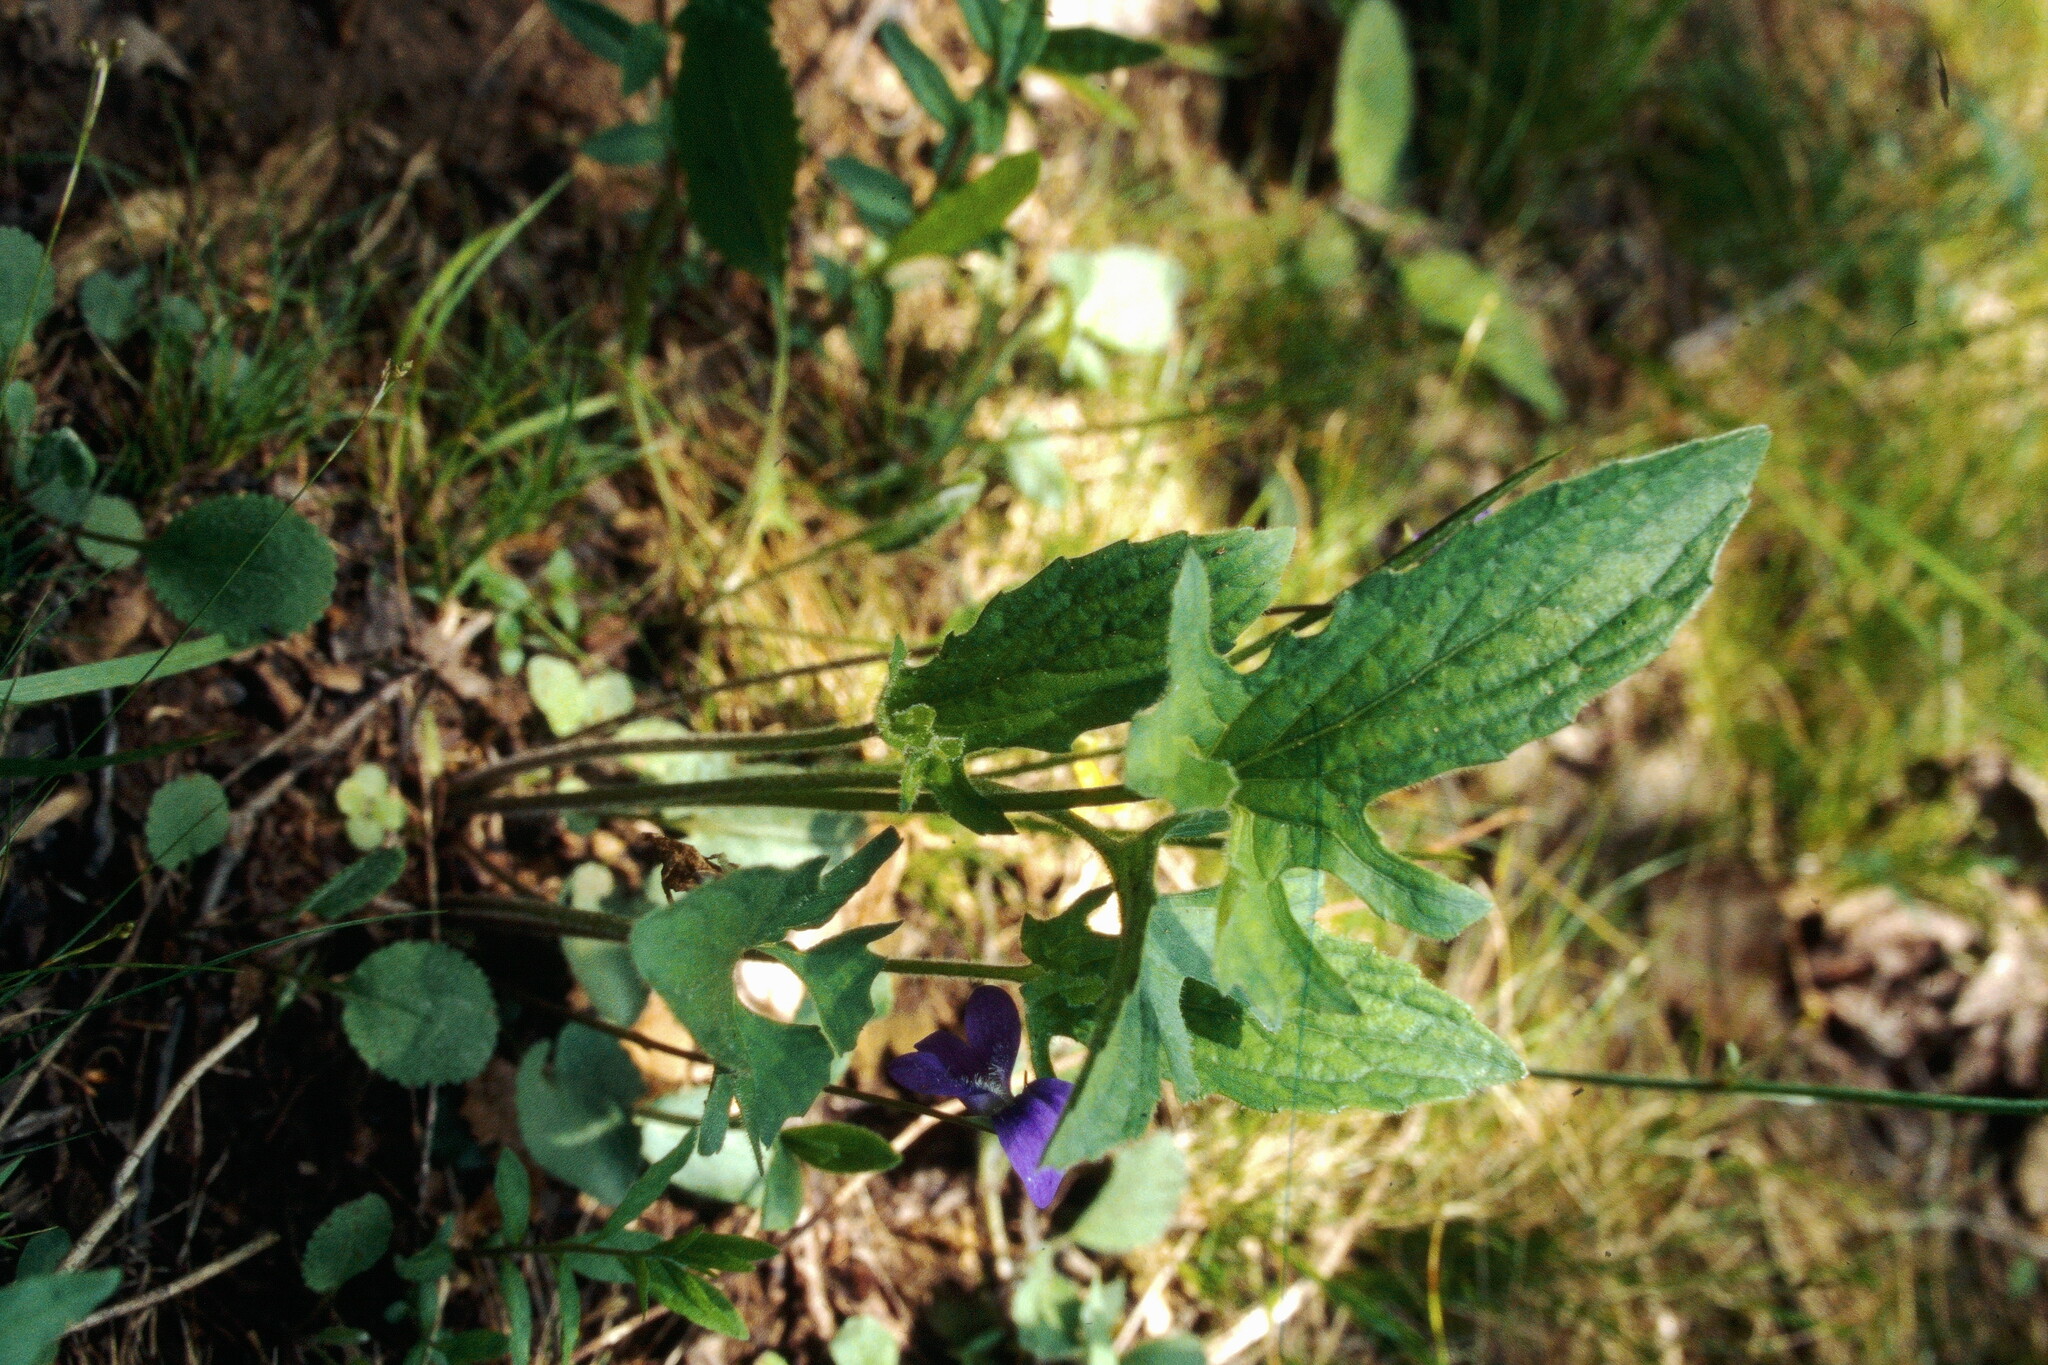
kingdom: Plantae
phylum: Tracheophyta
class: Magnoliopsida
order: Malpighiales
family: Violaceae
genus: Viola
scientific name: Viola palmata
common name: Early blue violet
